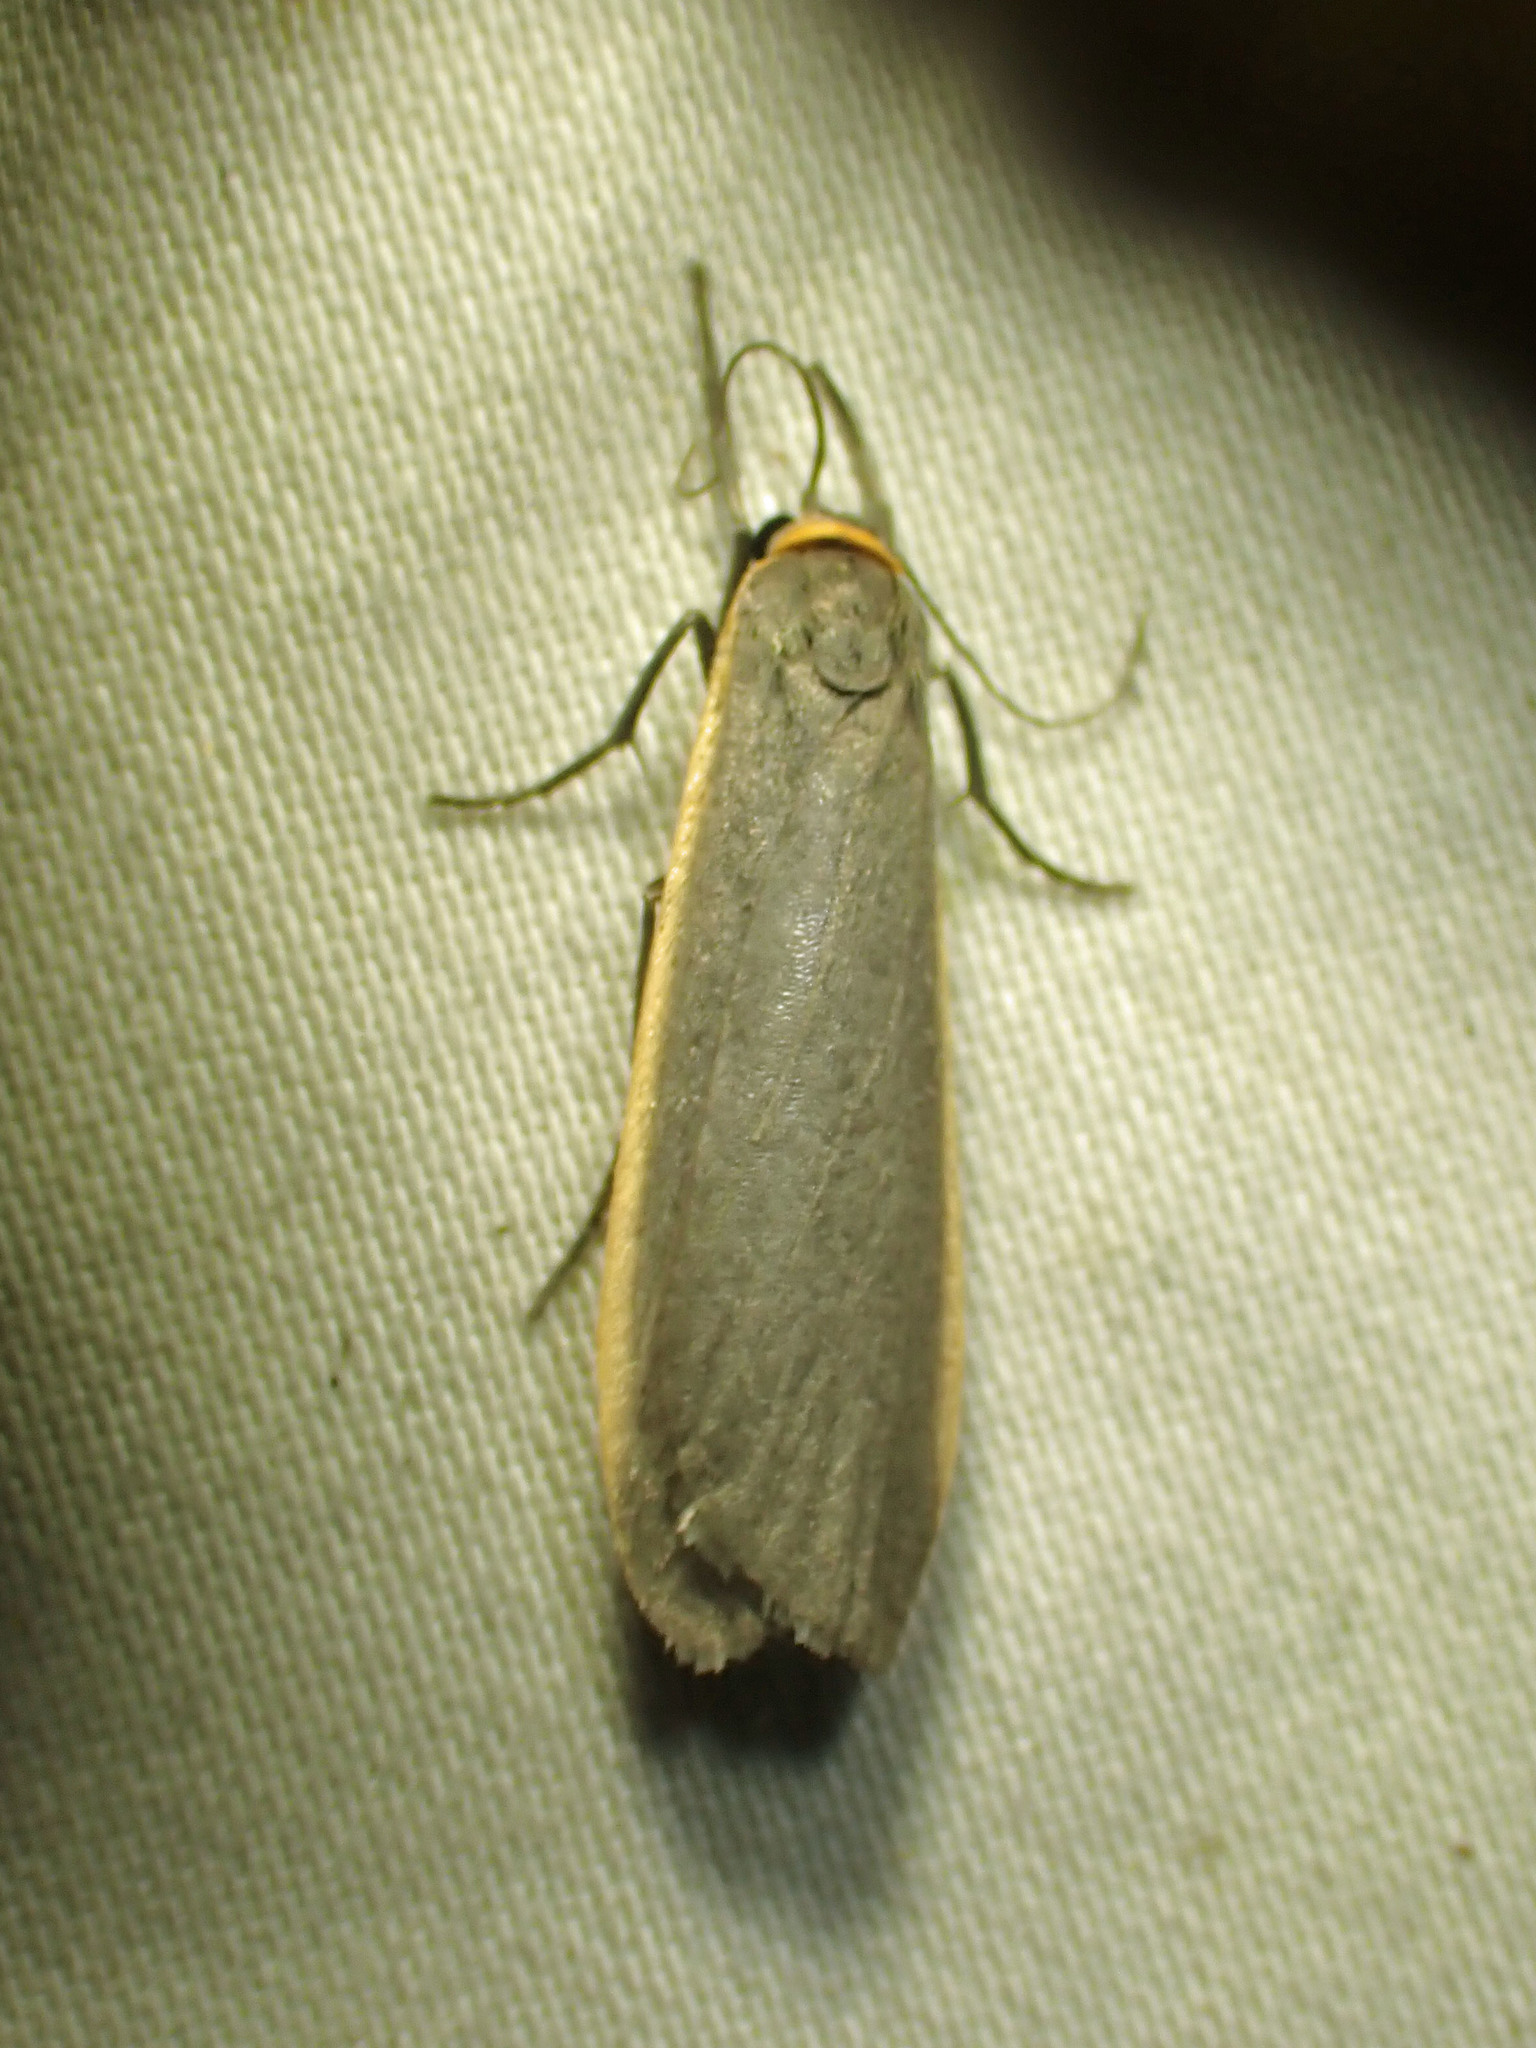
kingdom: Animalia
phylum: Arthropoda
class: Insecta
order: Lepidoptera
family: Erebidae
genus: Manulea
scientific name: Manulea bicolor
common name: Bicolored moth
